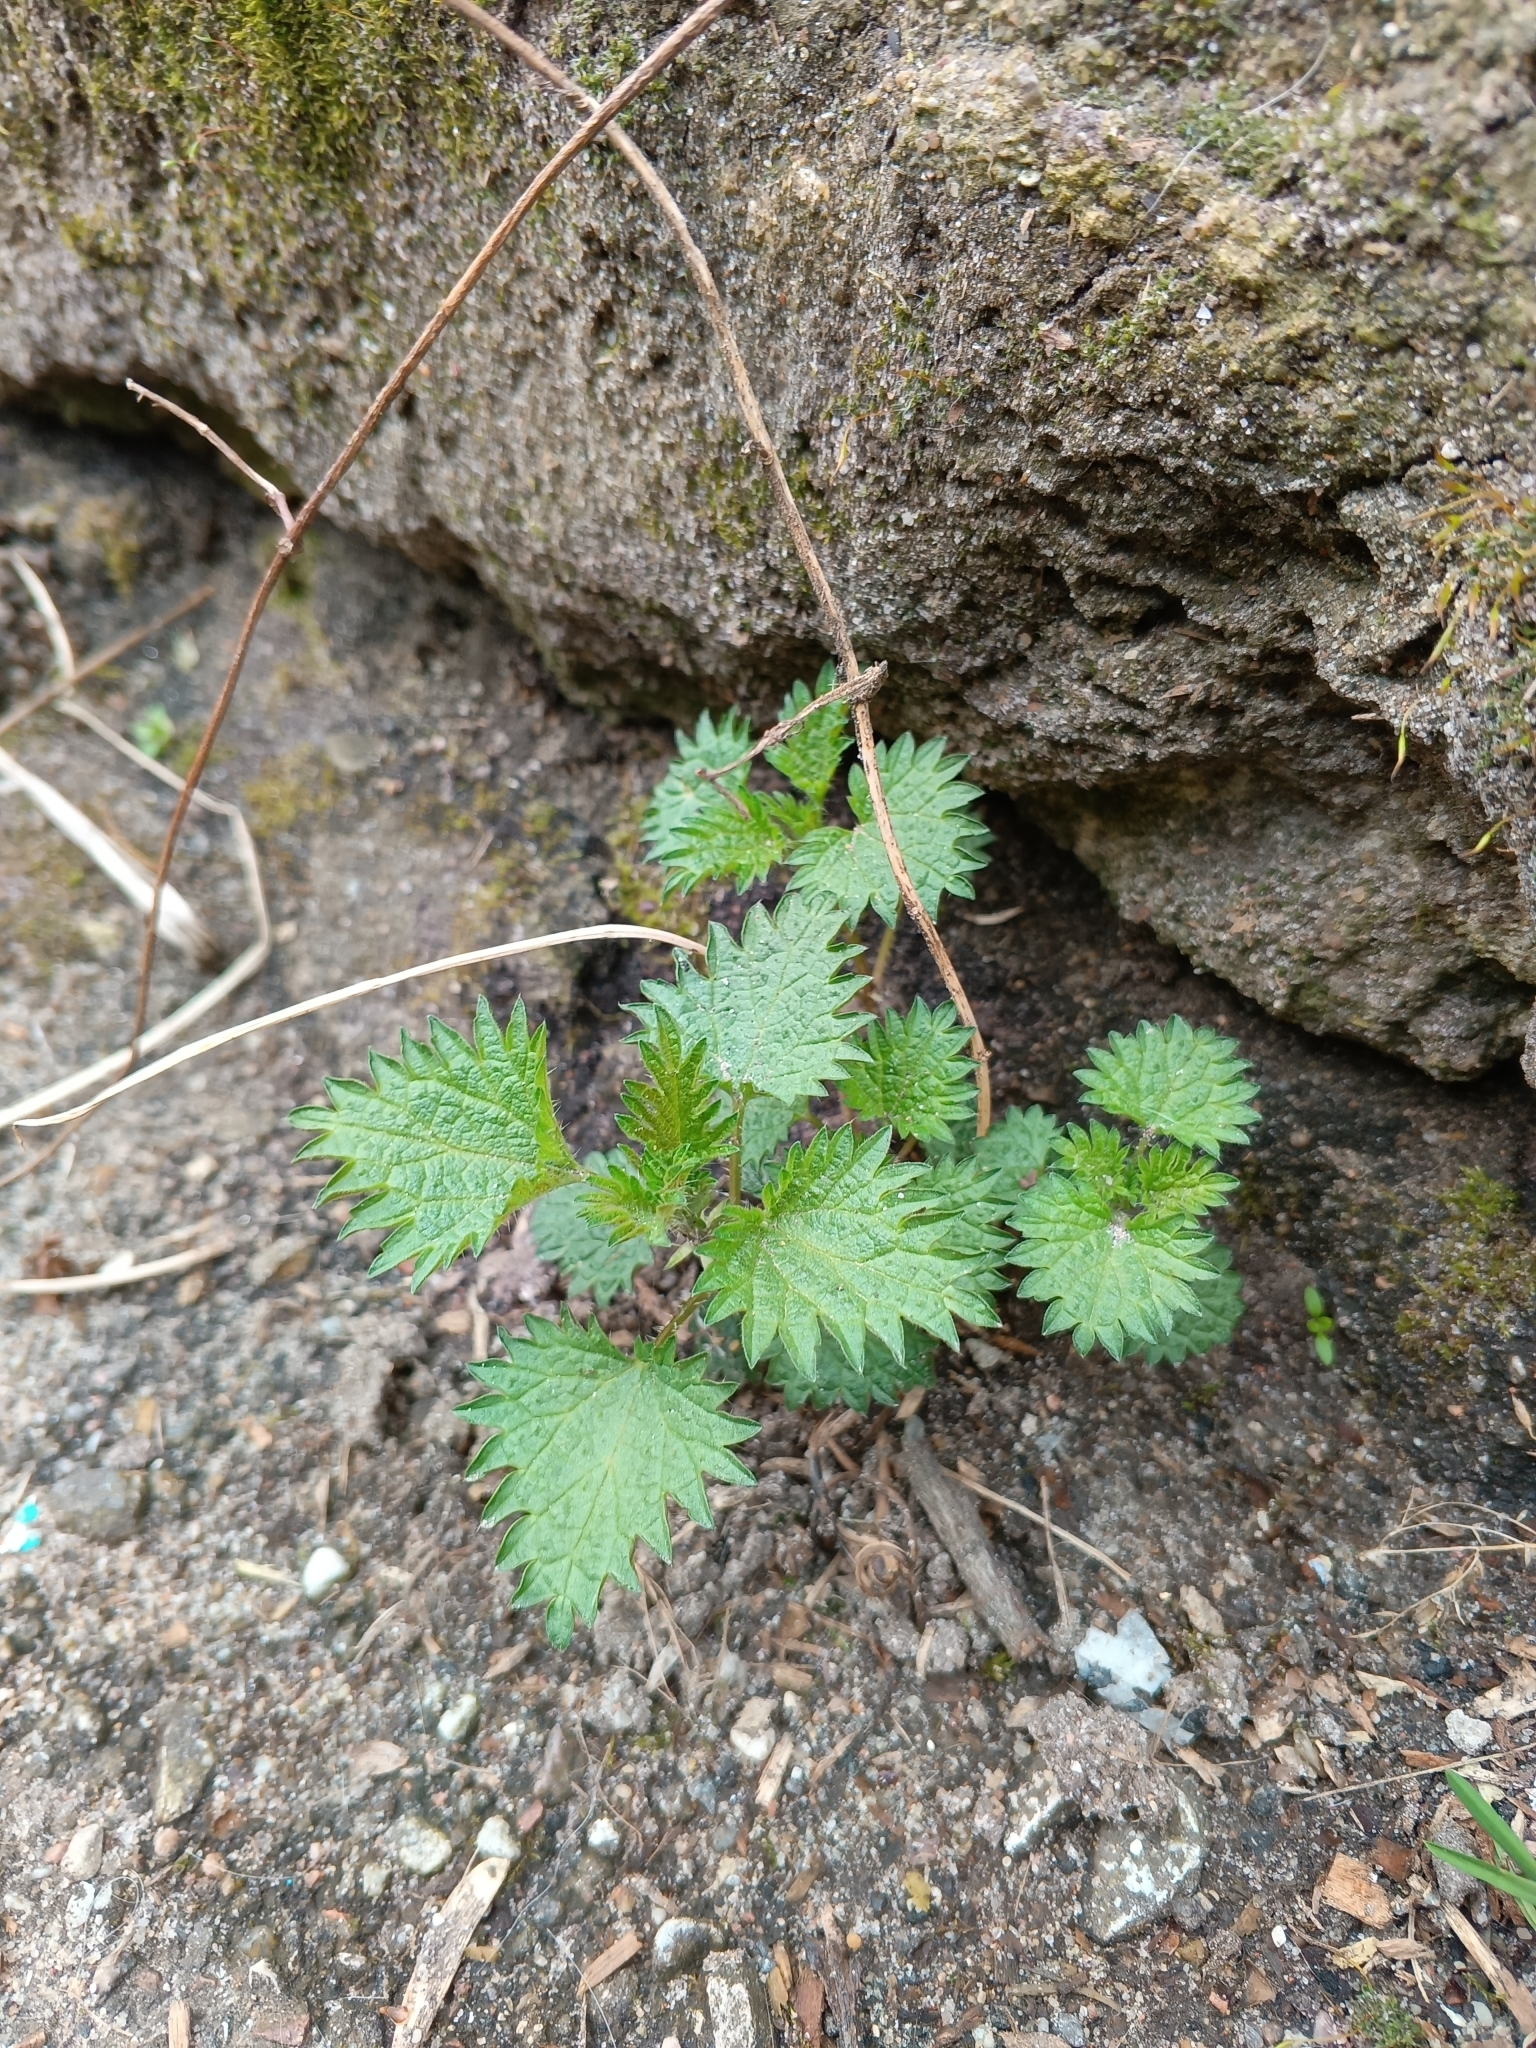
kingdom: Plantae
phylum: Tracheophyta
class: Magnoliopsida
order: Rosales
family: Urticaceae
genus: Urtica
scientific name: Urtica dioica
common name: Common nettle
